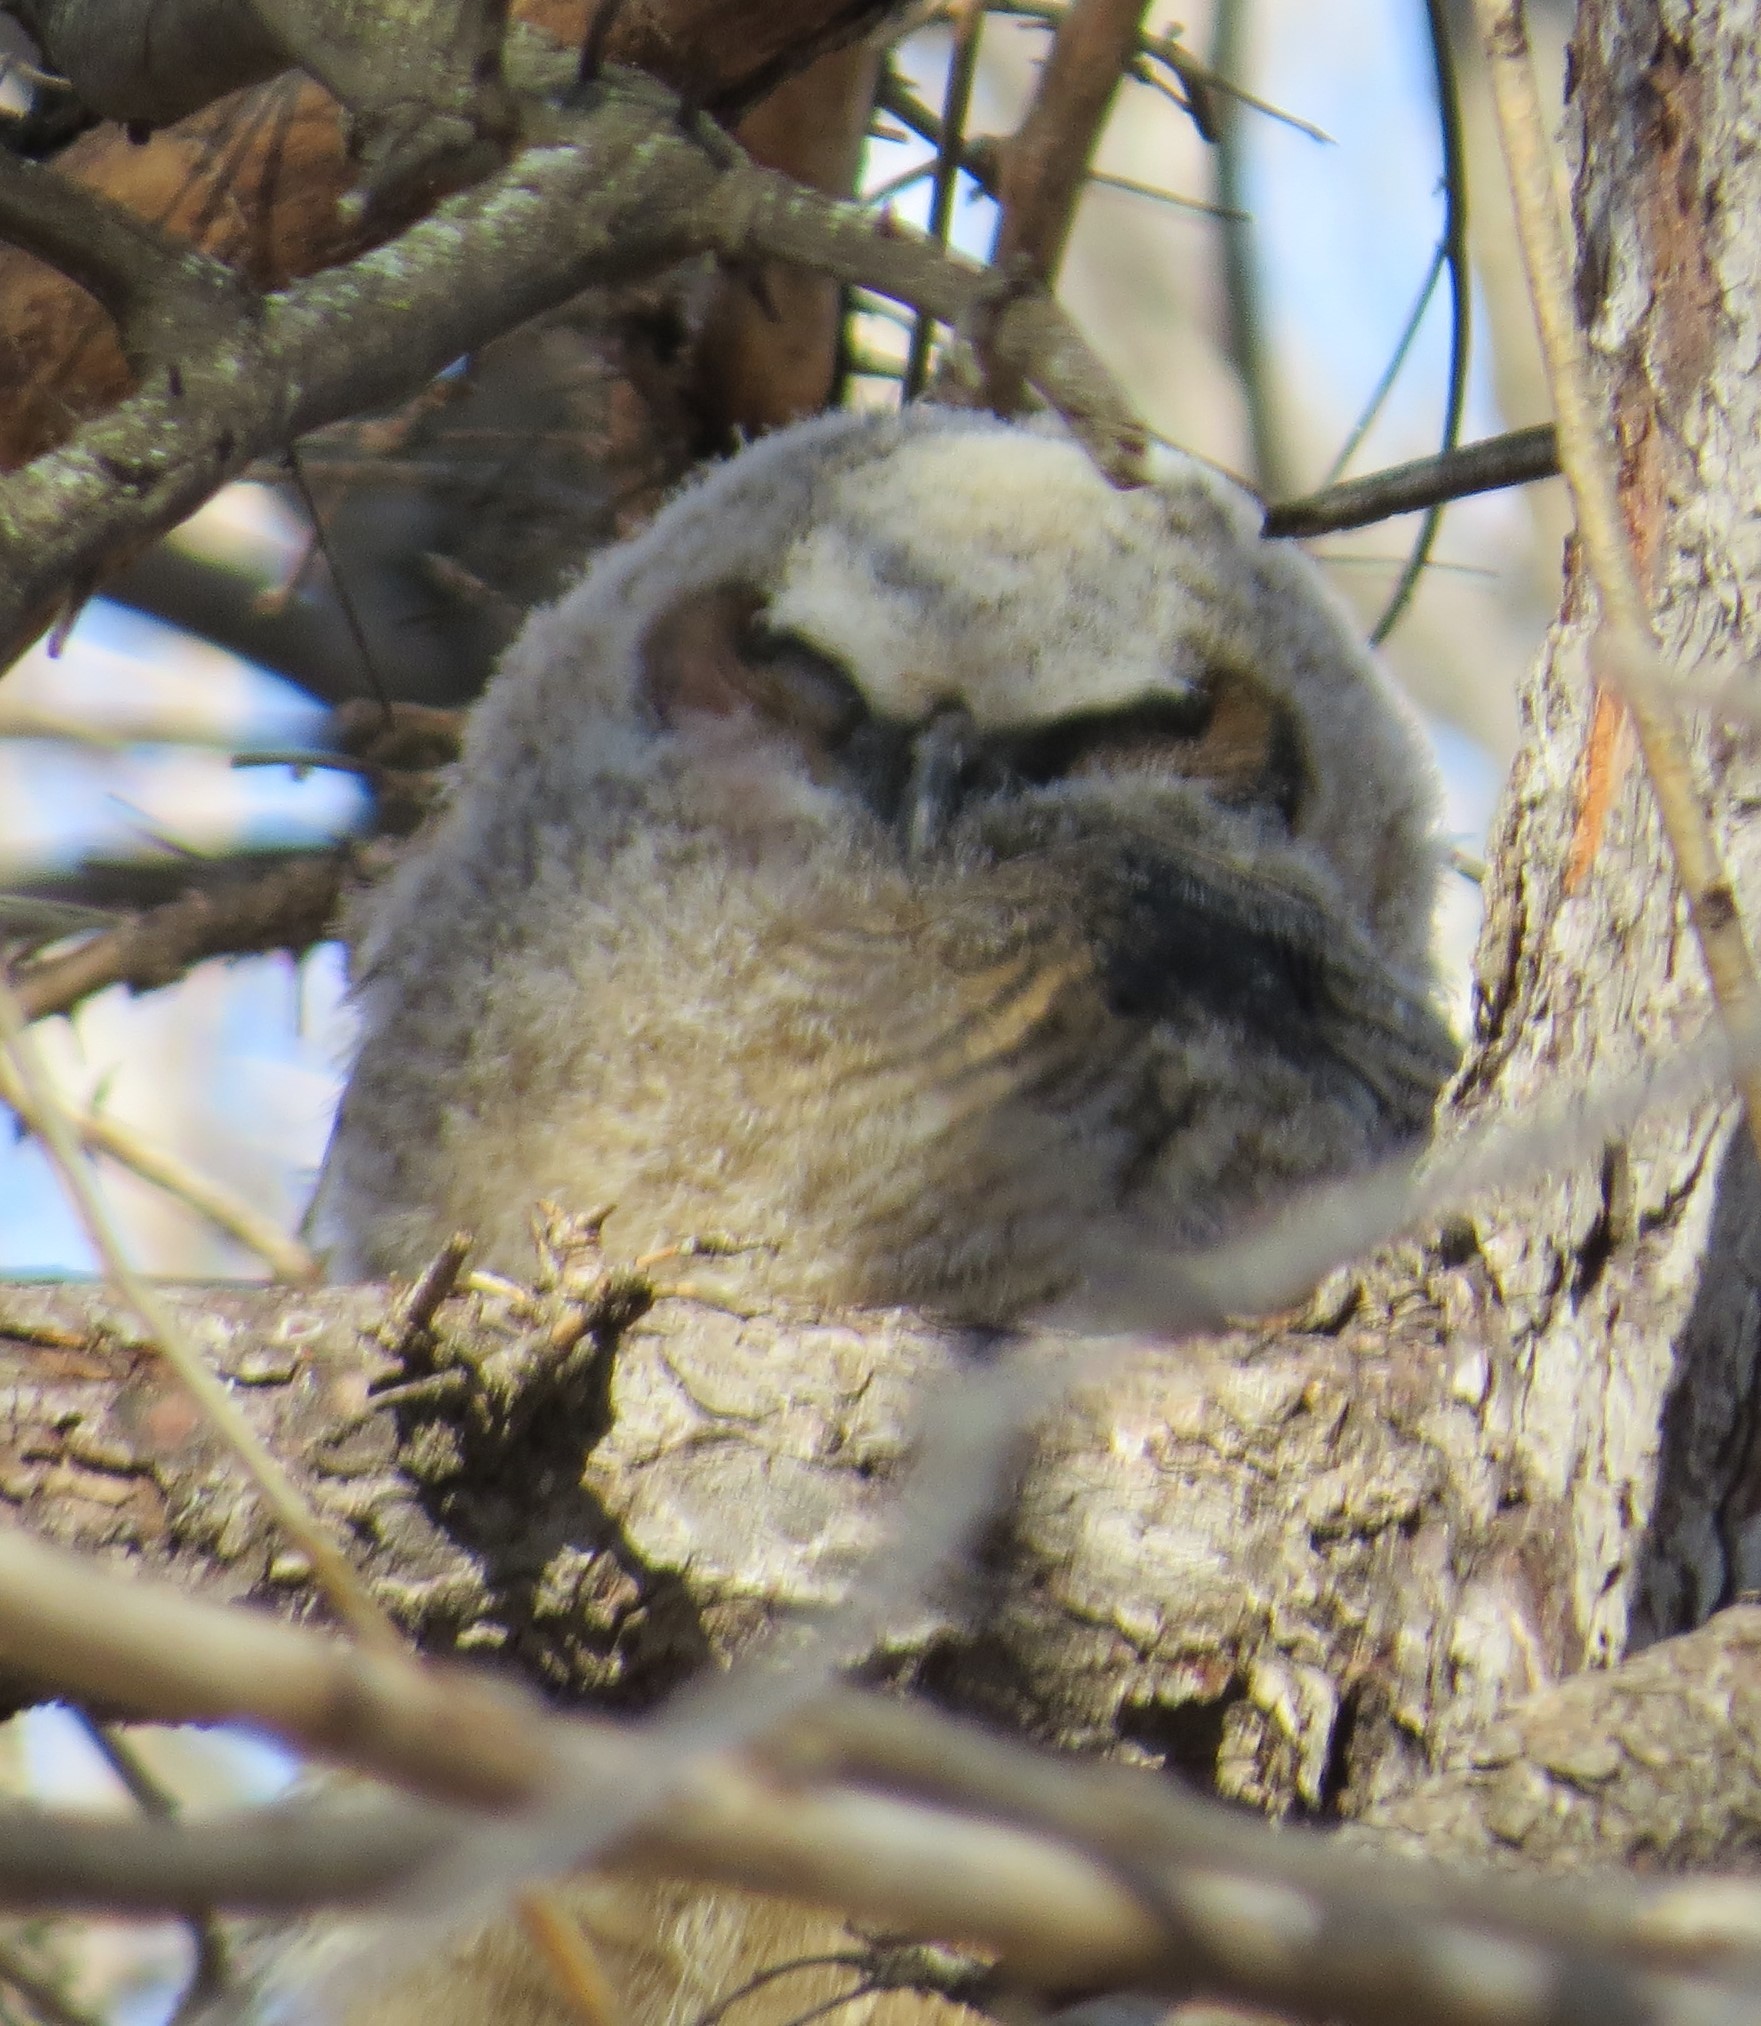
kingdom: Animalia
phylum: Chordata
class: Aves
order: Strigiformes
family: Strigidae
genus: Bubo
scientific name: Bubo virginianus
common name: Great horned owl
